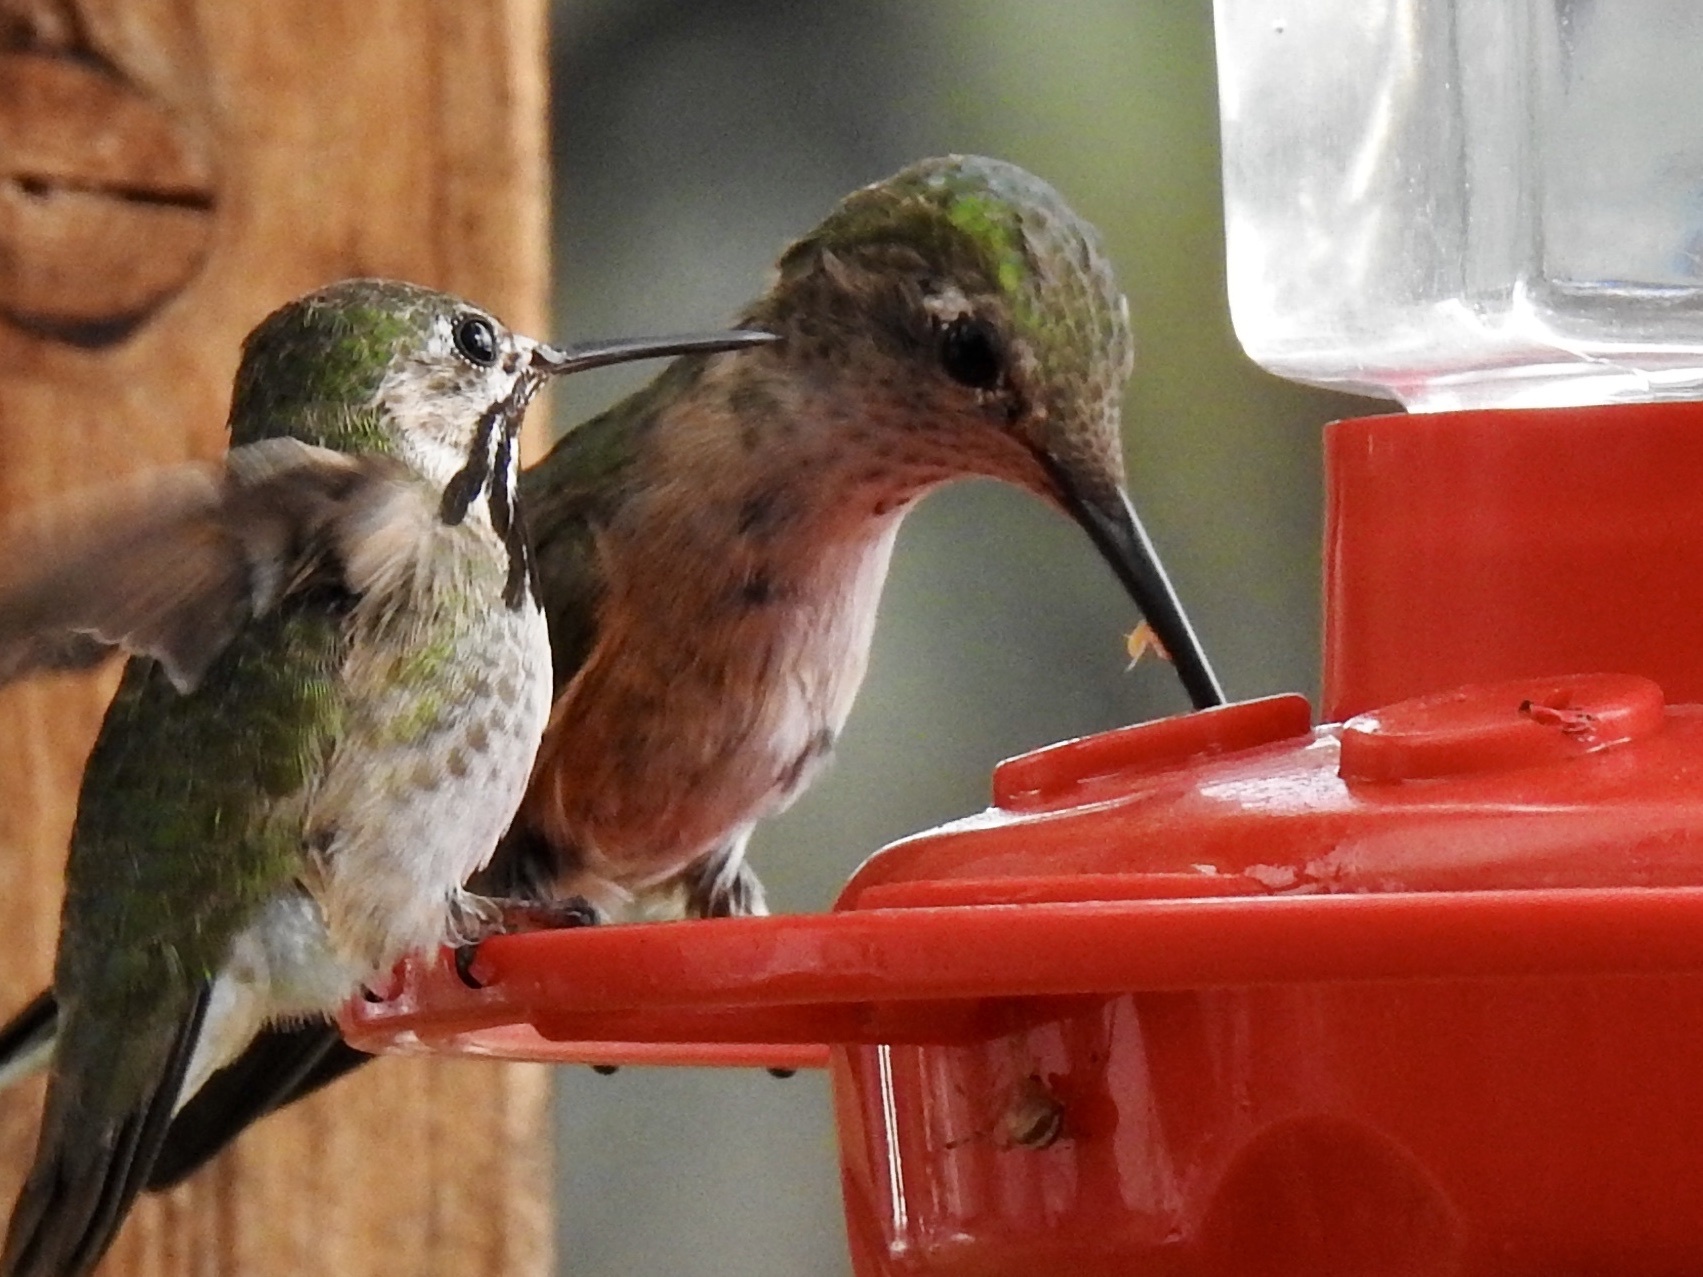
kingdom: Animalia
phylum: Chordata
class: Aves
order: Apodiformes
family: Trochilidae
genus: Selasphorus
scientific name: Selasphorus platycercus
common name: Broad-tailed hummingbird
